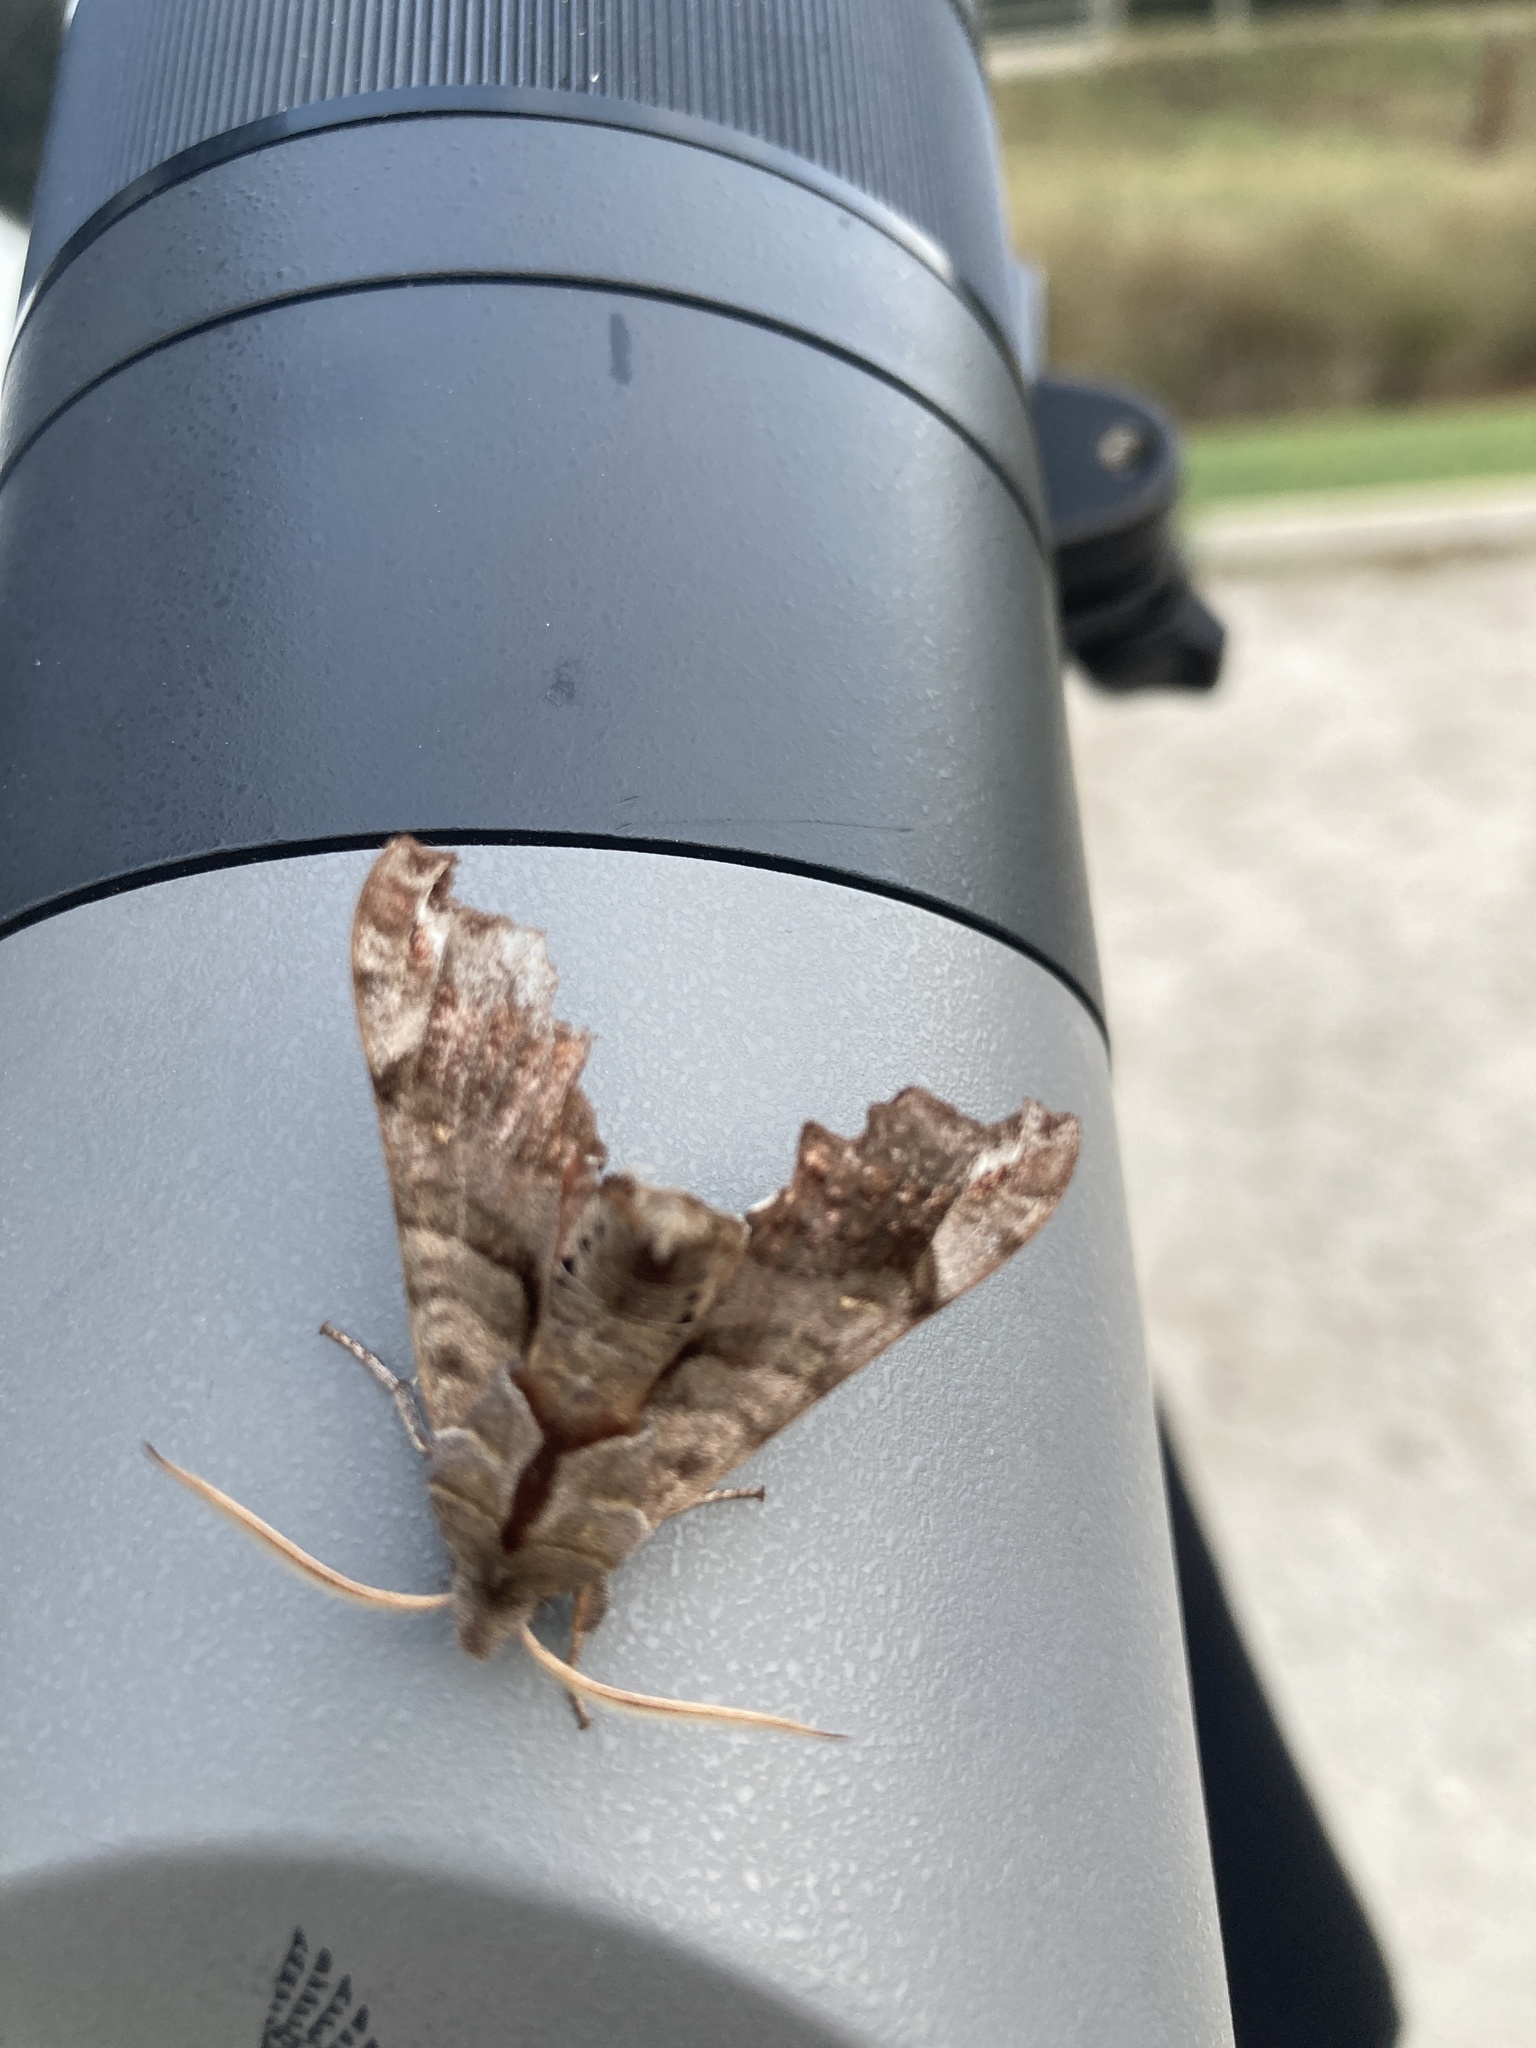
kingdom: Animalia
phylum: Arthropoda
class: Insecta
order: Lepidoptera
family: Sphingidae
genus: Deidamia
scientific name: Deidamia inscriptum
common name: Lettered sphinx
